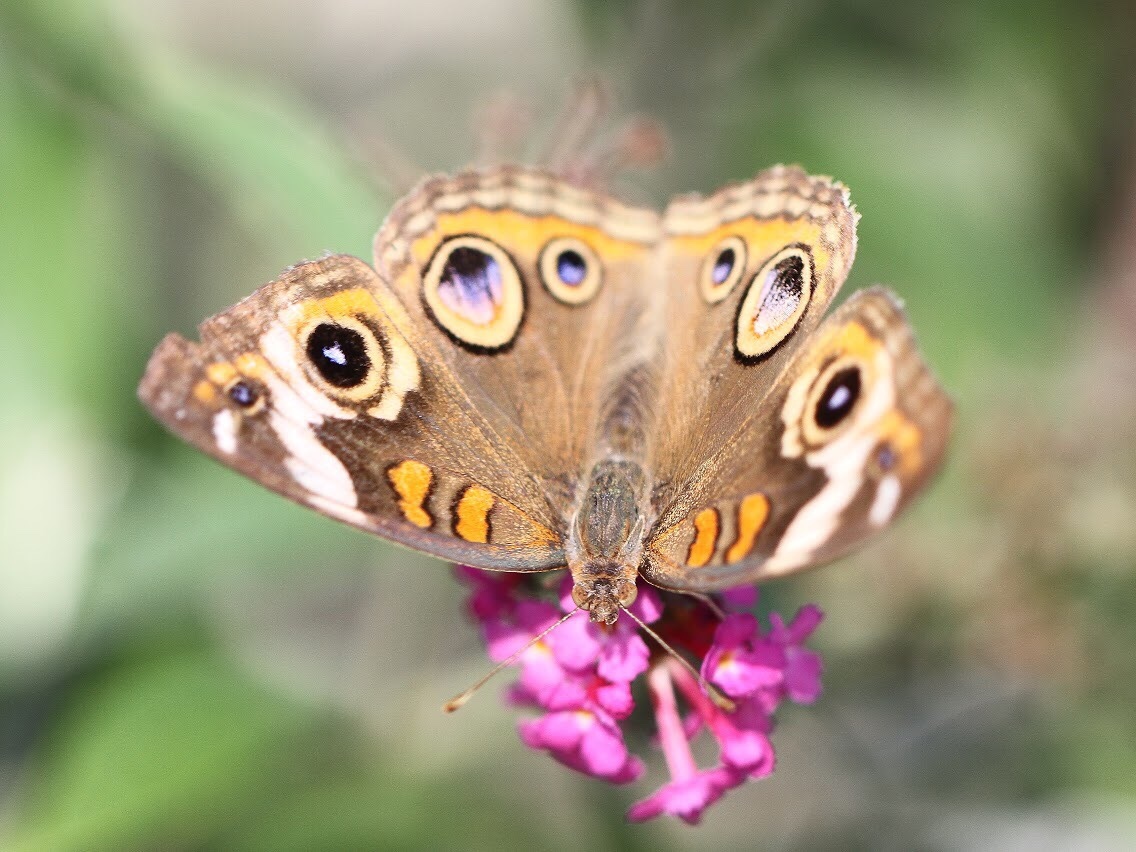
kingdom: Animalia
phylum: Arthropoda
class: Insecta
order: Lepidoptera
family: Nymphalidae
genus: Junonia
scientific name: Junonia coenia
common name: Common buckeye
